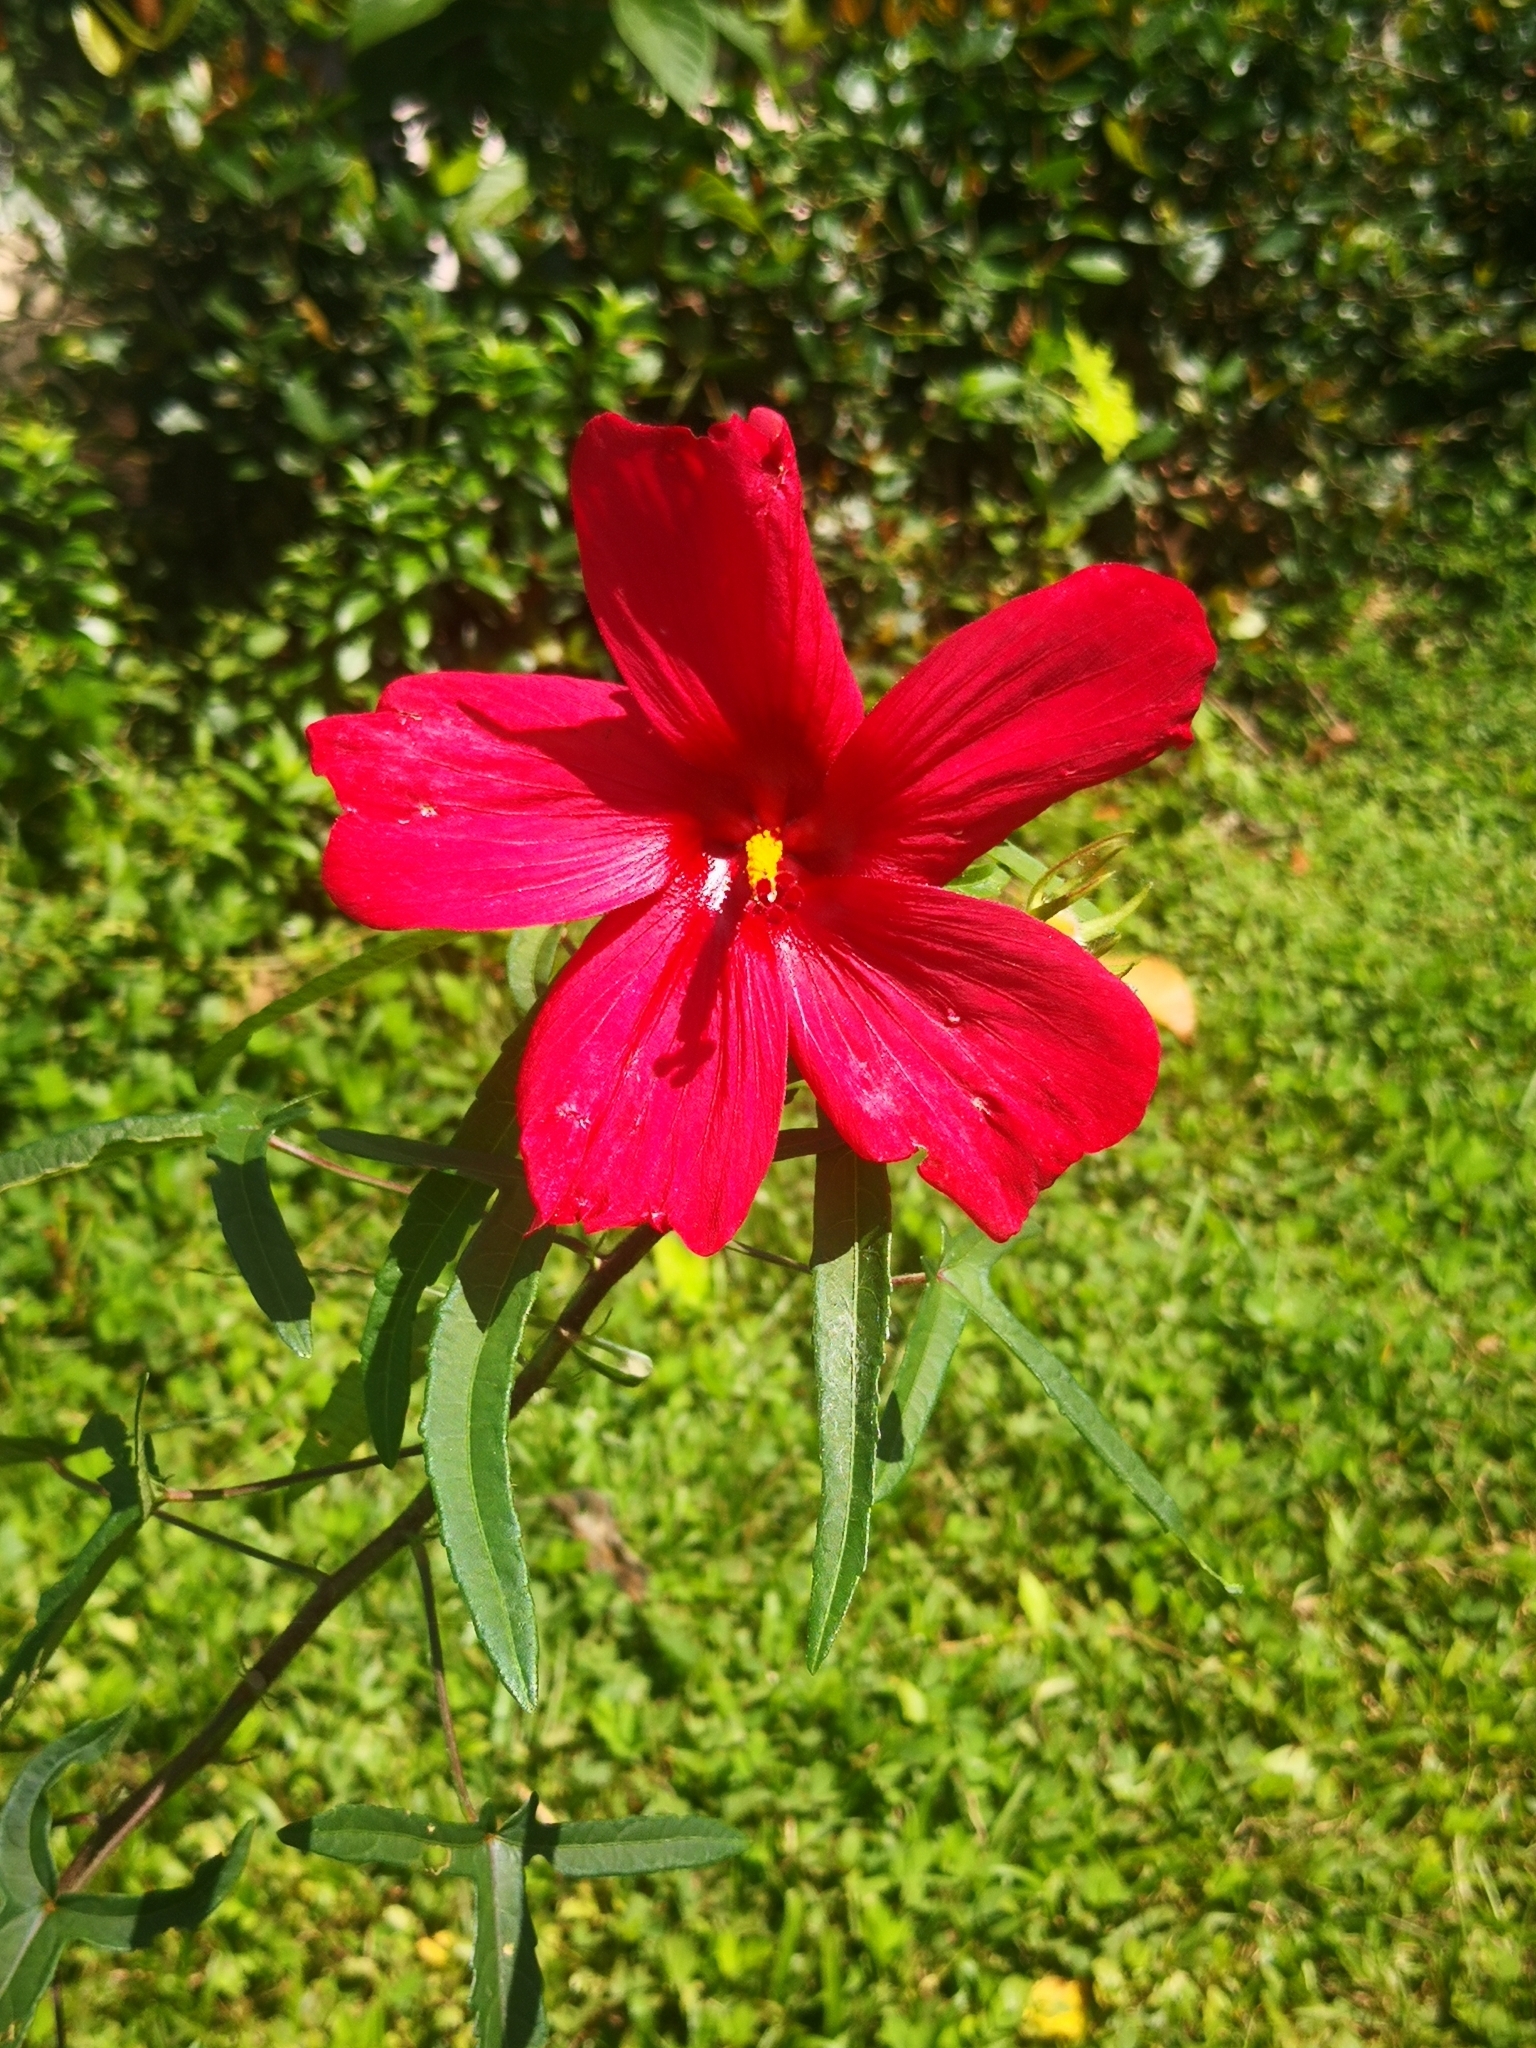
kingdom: Plantae
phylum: Tracheophyta
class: Magnoliopsida
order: Malvales
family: Malvaceae
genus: Abelmoschus
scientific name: Abelmoschus sagittifolius
